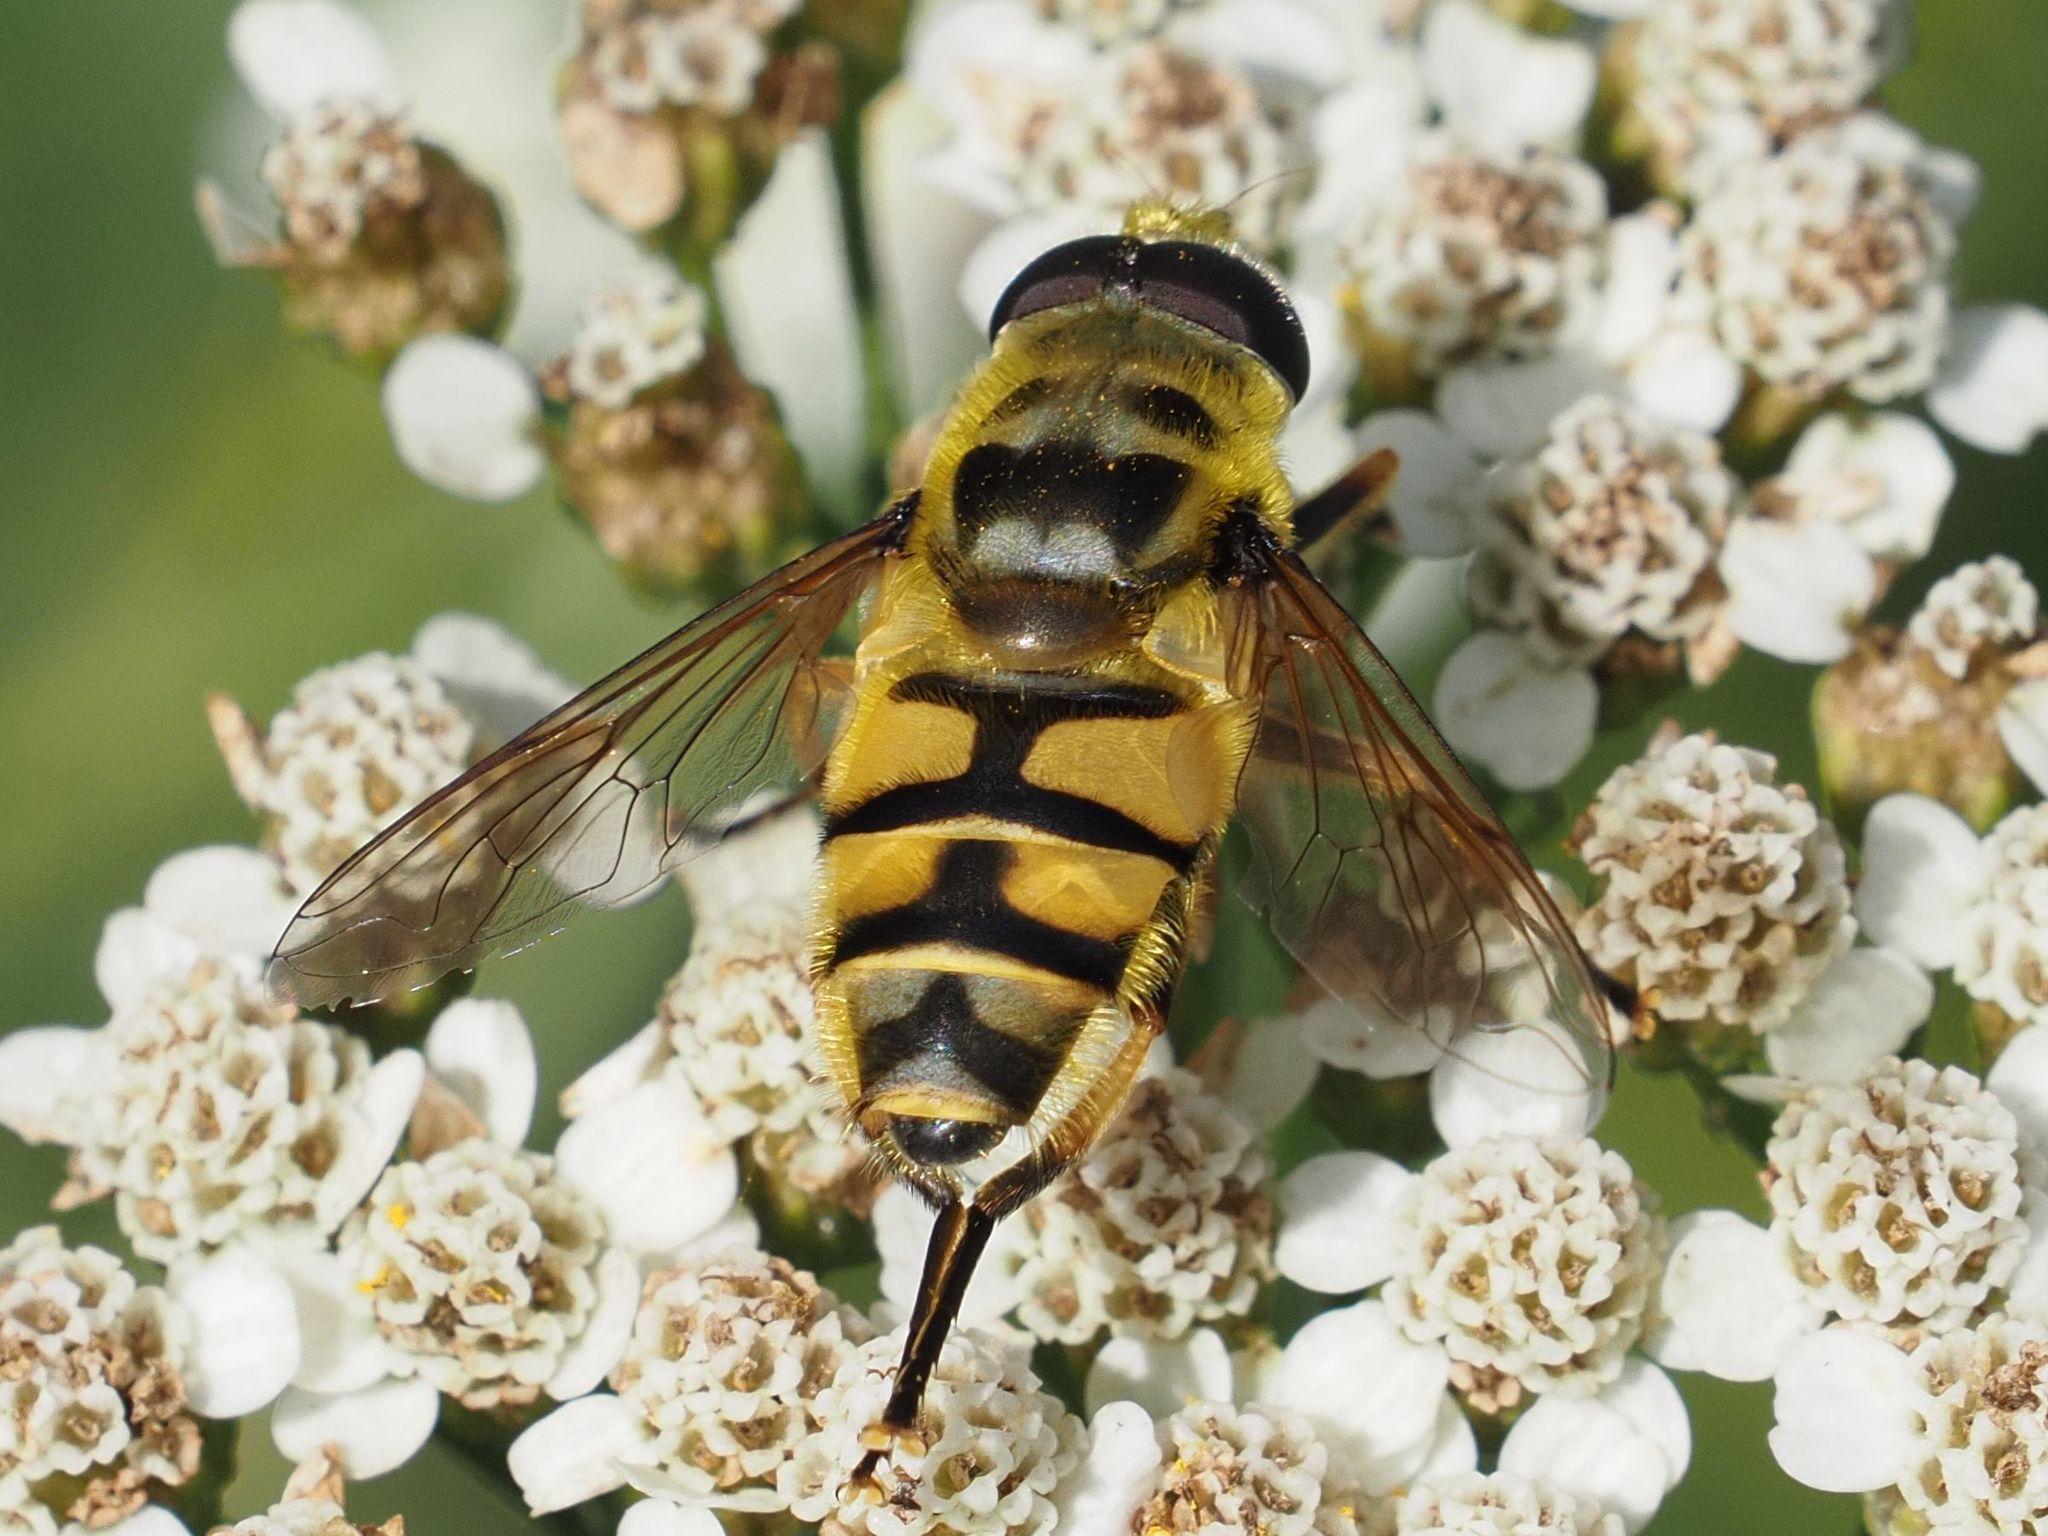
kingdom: Animalia
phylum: Arthropoda
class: Insecta
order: Diptera
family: Syrphidae
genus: Myathropa
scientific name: Myathropa florea
